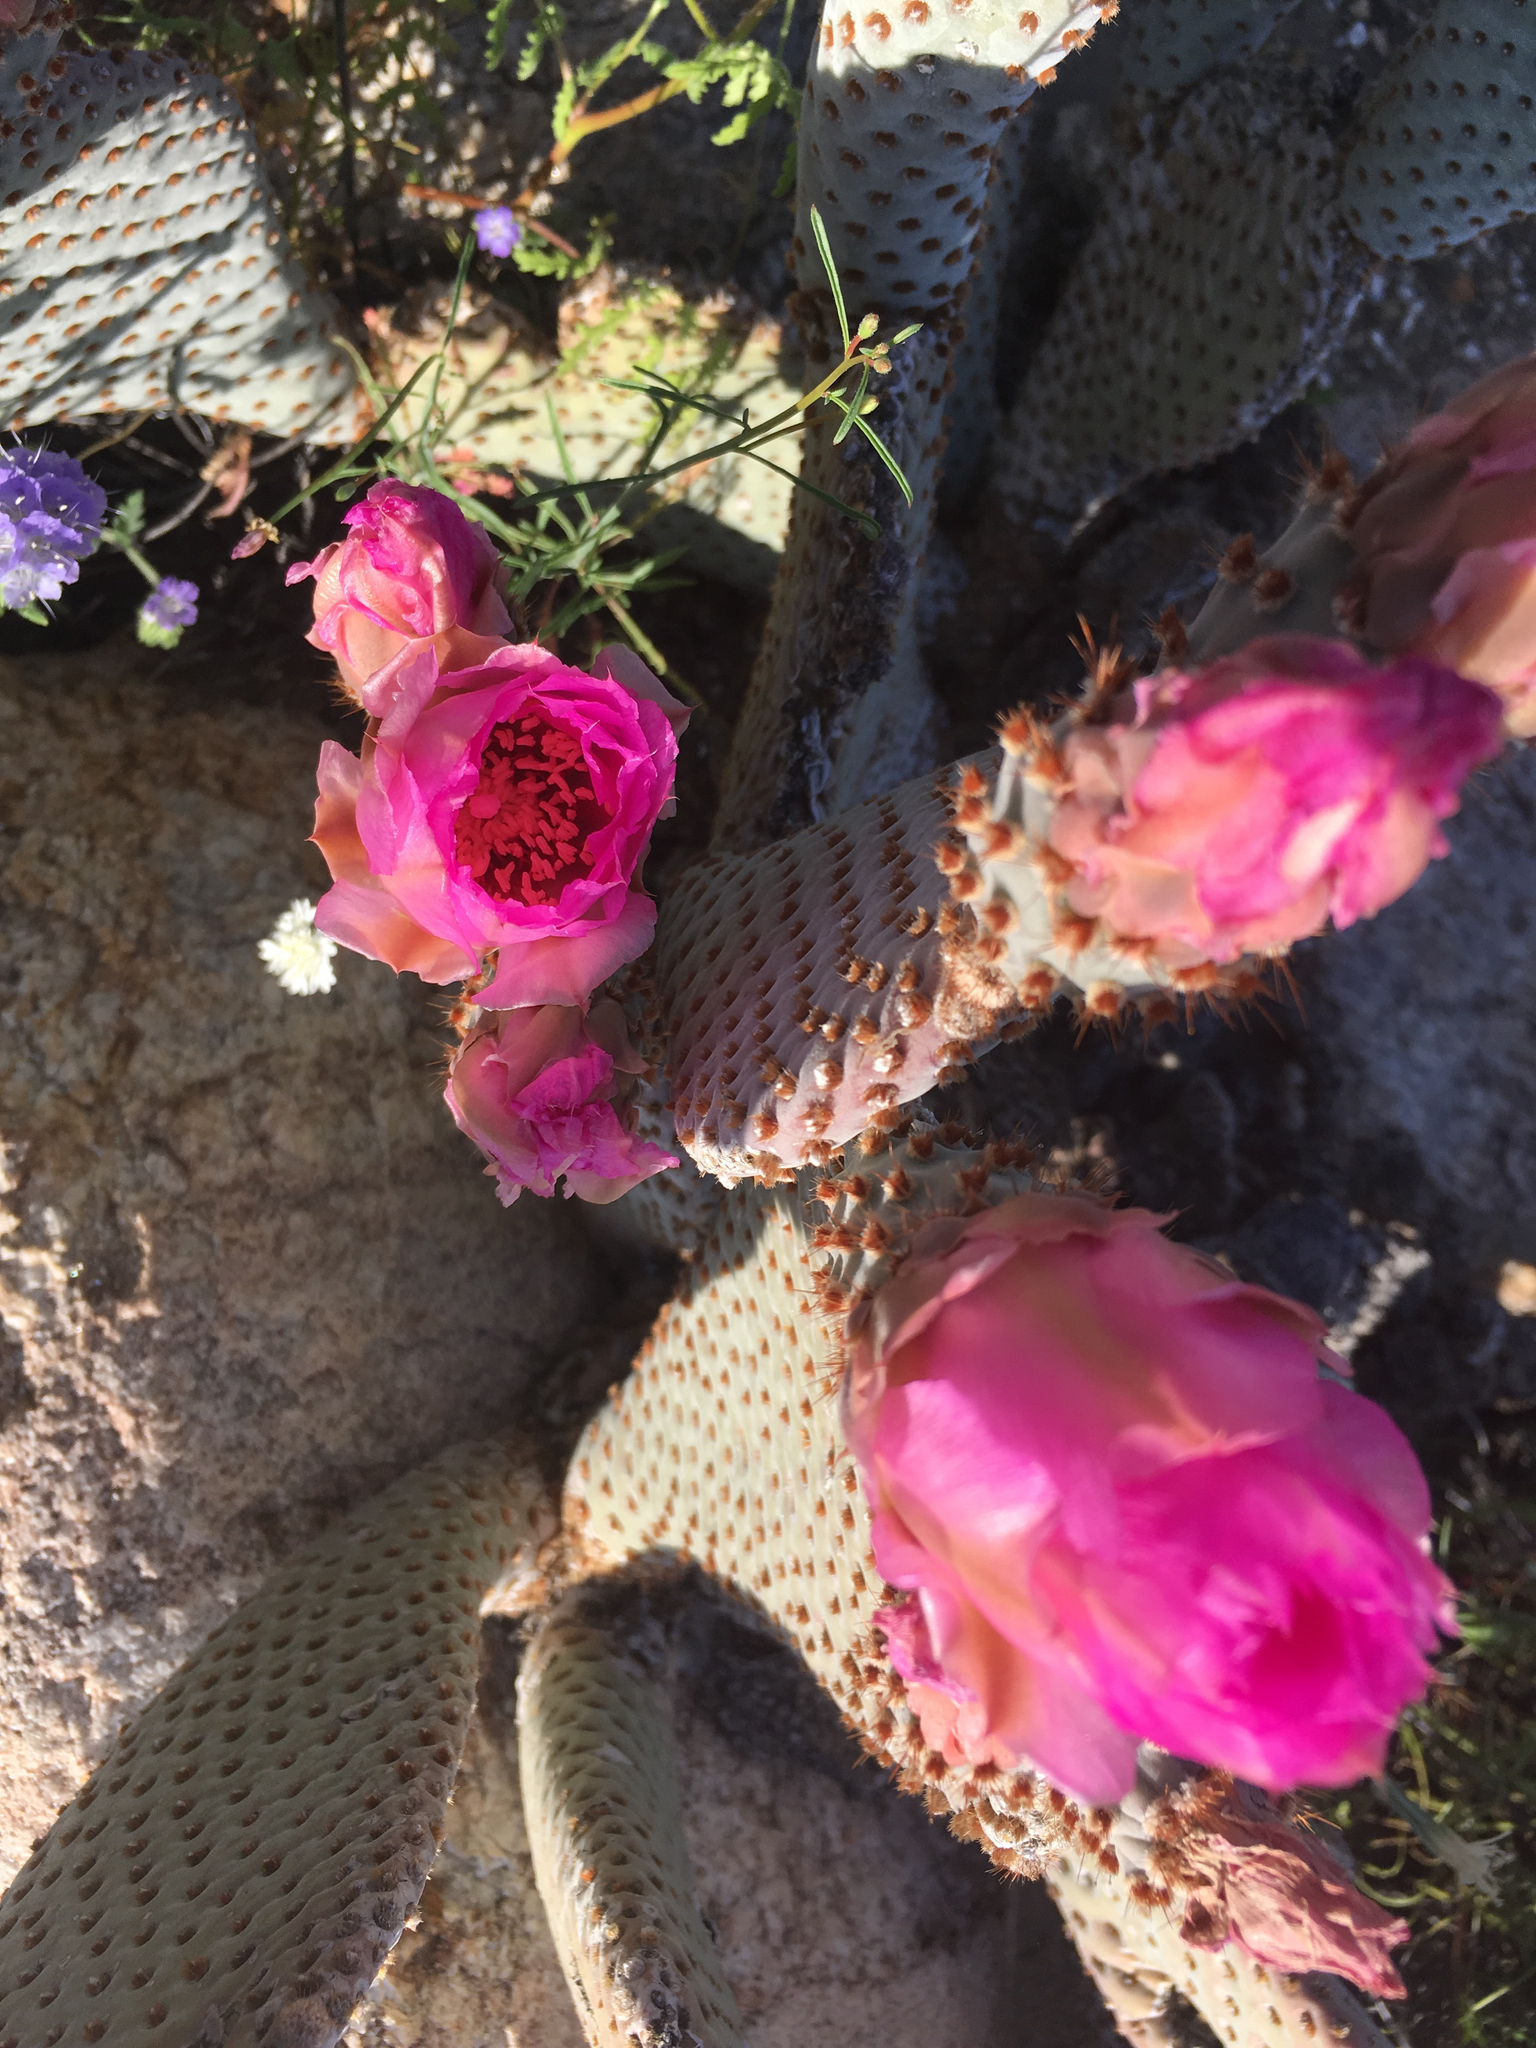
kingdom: Plantae
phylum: Tracheophyta
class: Magnoliopsida
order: Caryophyllales
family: Cactaceae
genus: Opuntia
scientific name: Opuntia basilaris
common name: Beavertail prickly-pear
